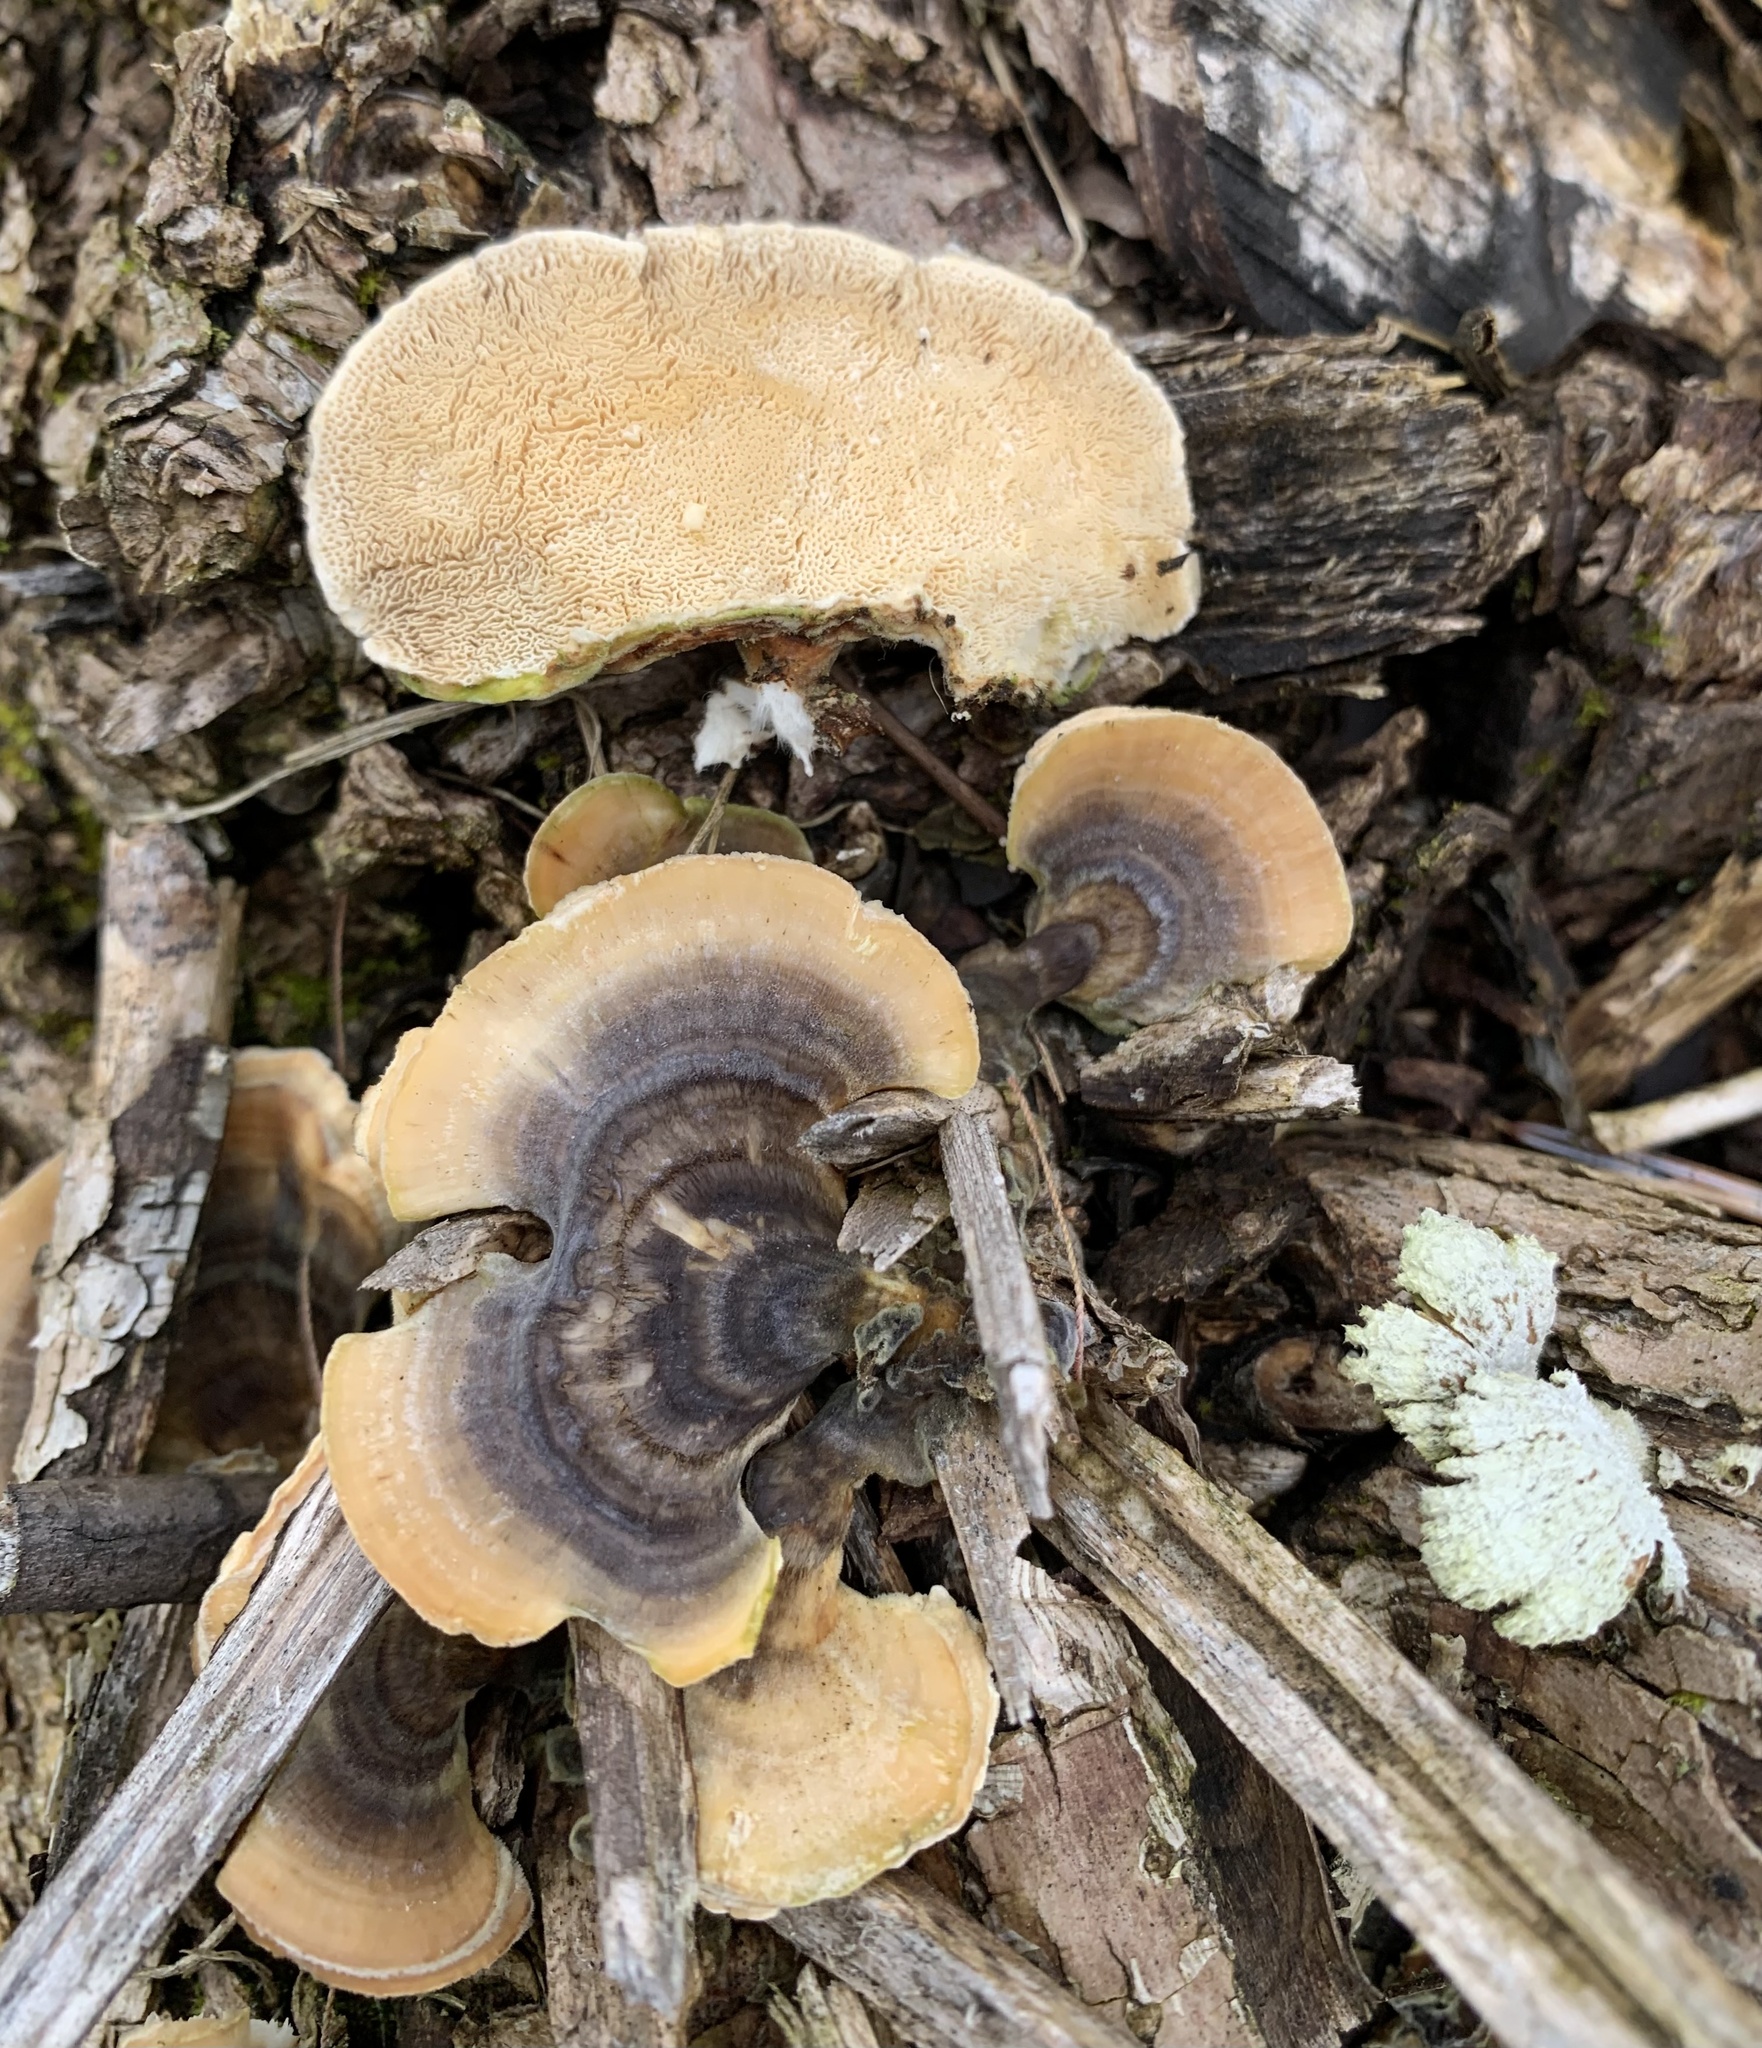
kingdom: Fungi
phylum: Basidiomycota
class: Agaricomycetes
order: Polyporales
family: Polyporaceae
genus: Trametes
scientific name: Trametes versicolor
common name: Turkeytail
